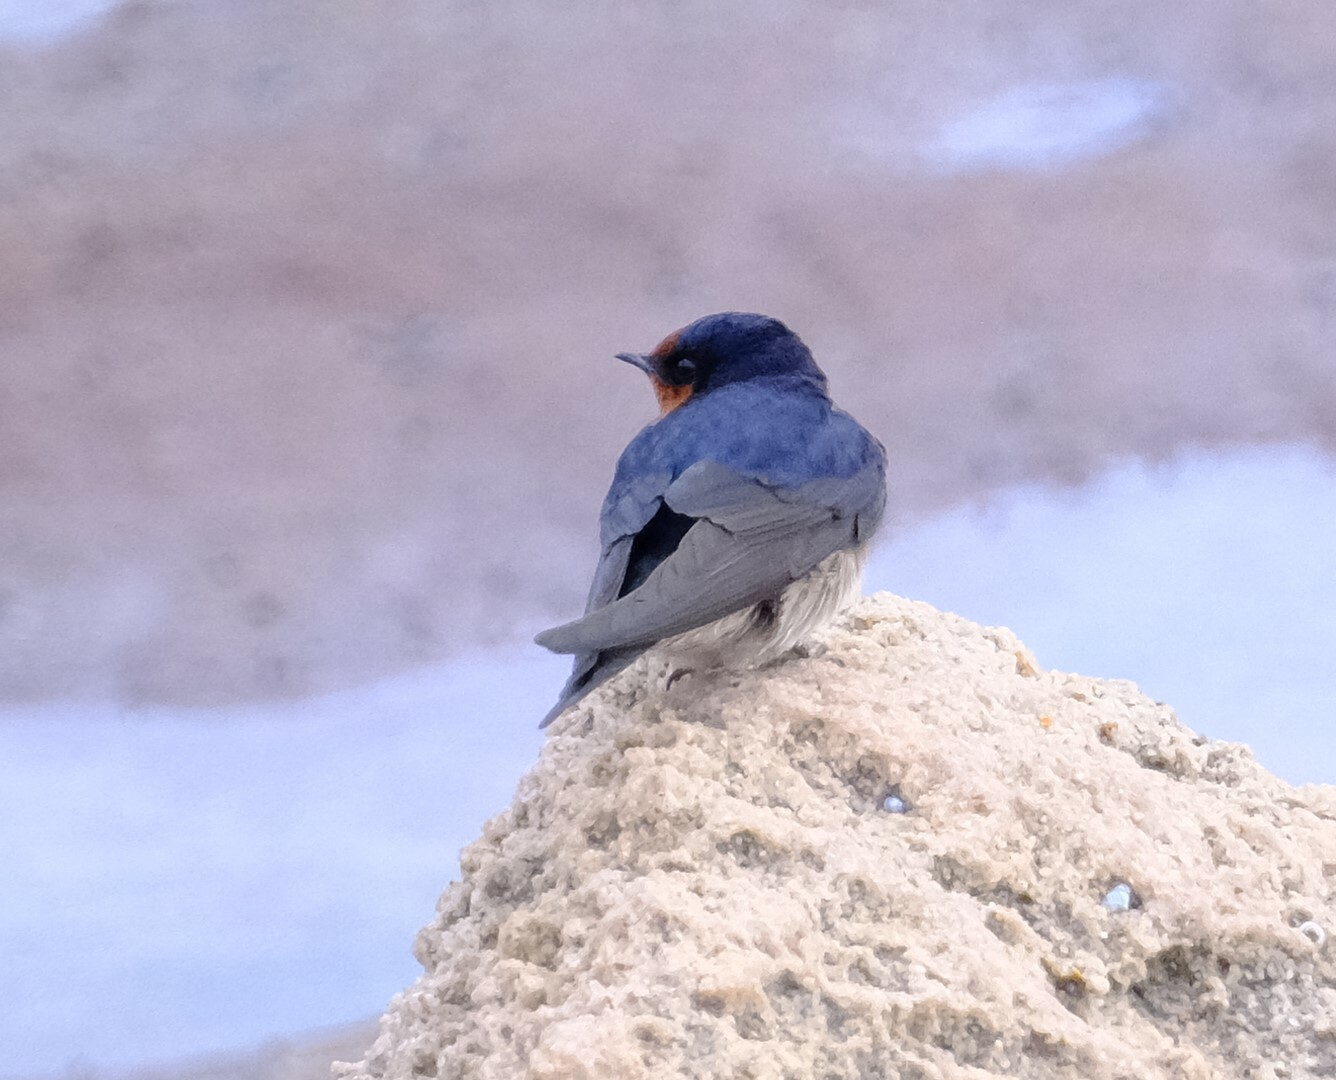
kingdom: Animalia
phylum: Chordata
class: Aves
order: Passeriformes
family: Hirundinidae
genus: Hirundo
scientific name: Hirundo neoxena
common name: Welcome swallow
